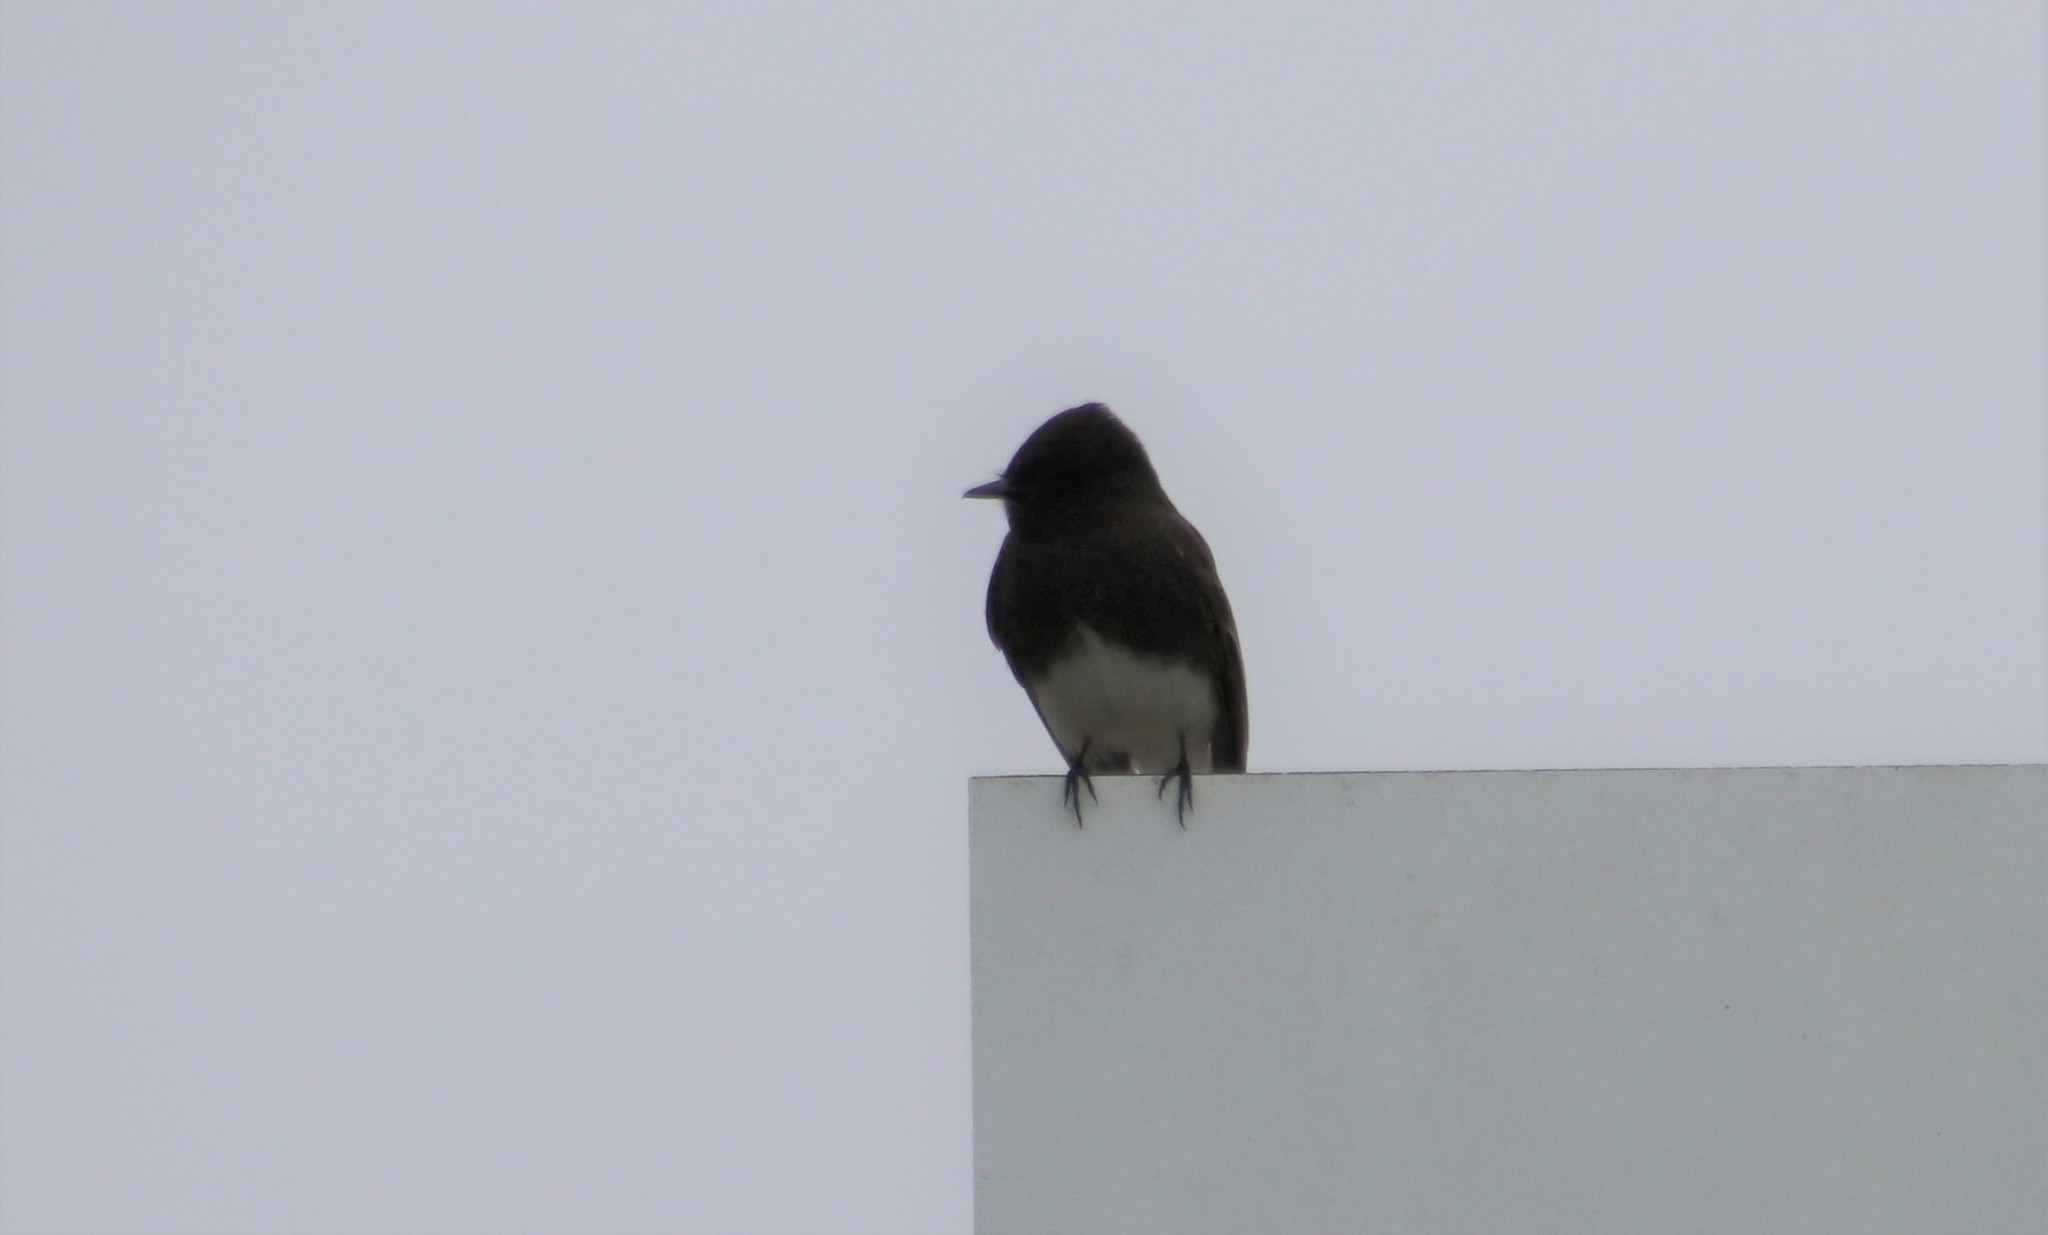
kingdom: Animalia
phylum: Chordata
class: Aves
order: Passeriformes
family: Tyrannidae
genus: Sayornis
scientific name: Sayornis nigricans
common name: Black phoebe
